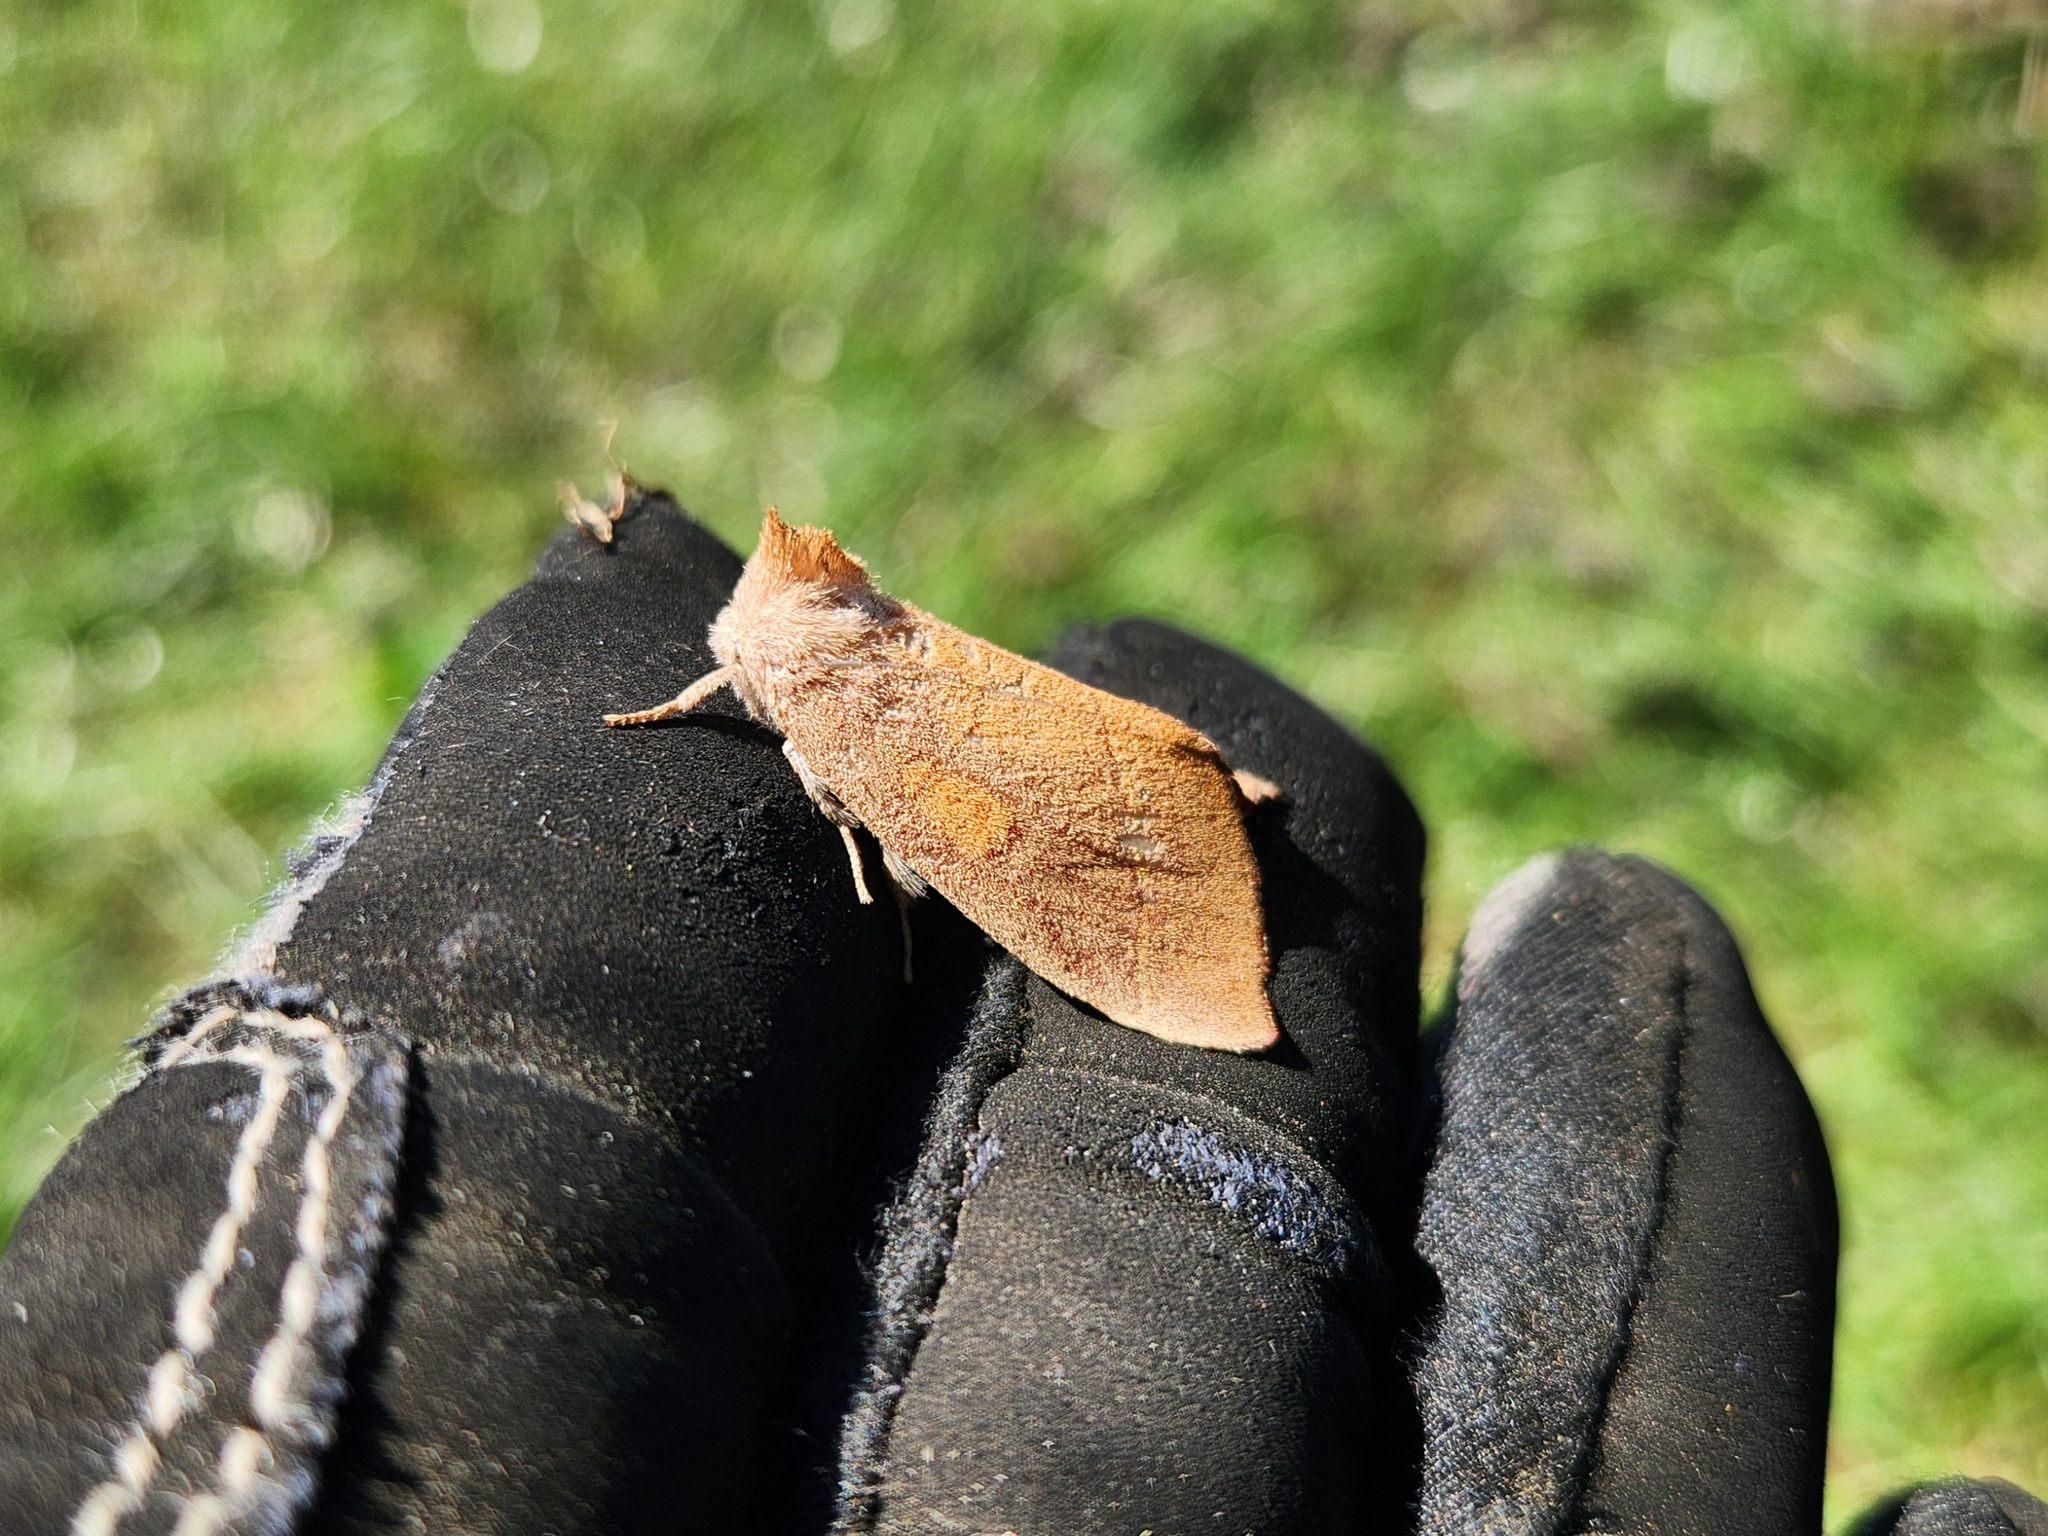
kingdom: Animalia
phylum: Arthropoda
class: Insecta
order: Lepidoptera
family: Notodontidae
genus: Nadata
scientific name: Nadata gibbosa
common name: White-dotted prominent
